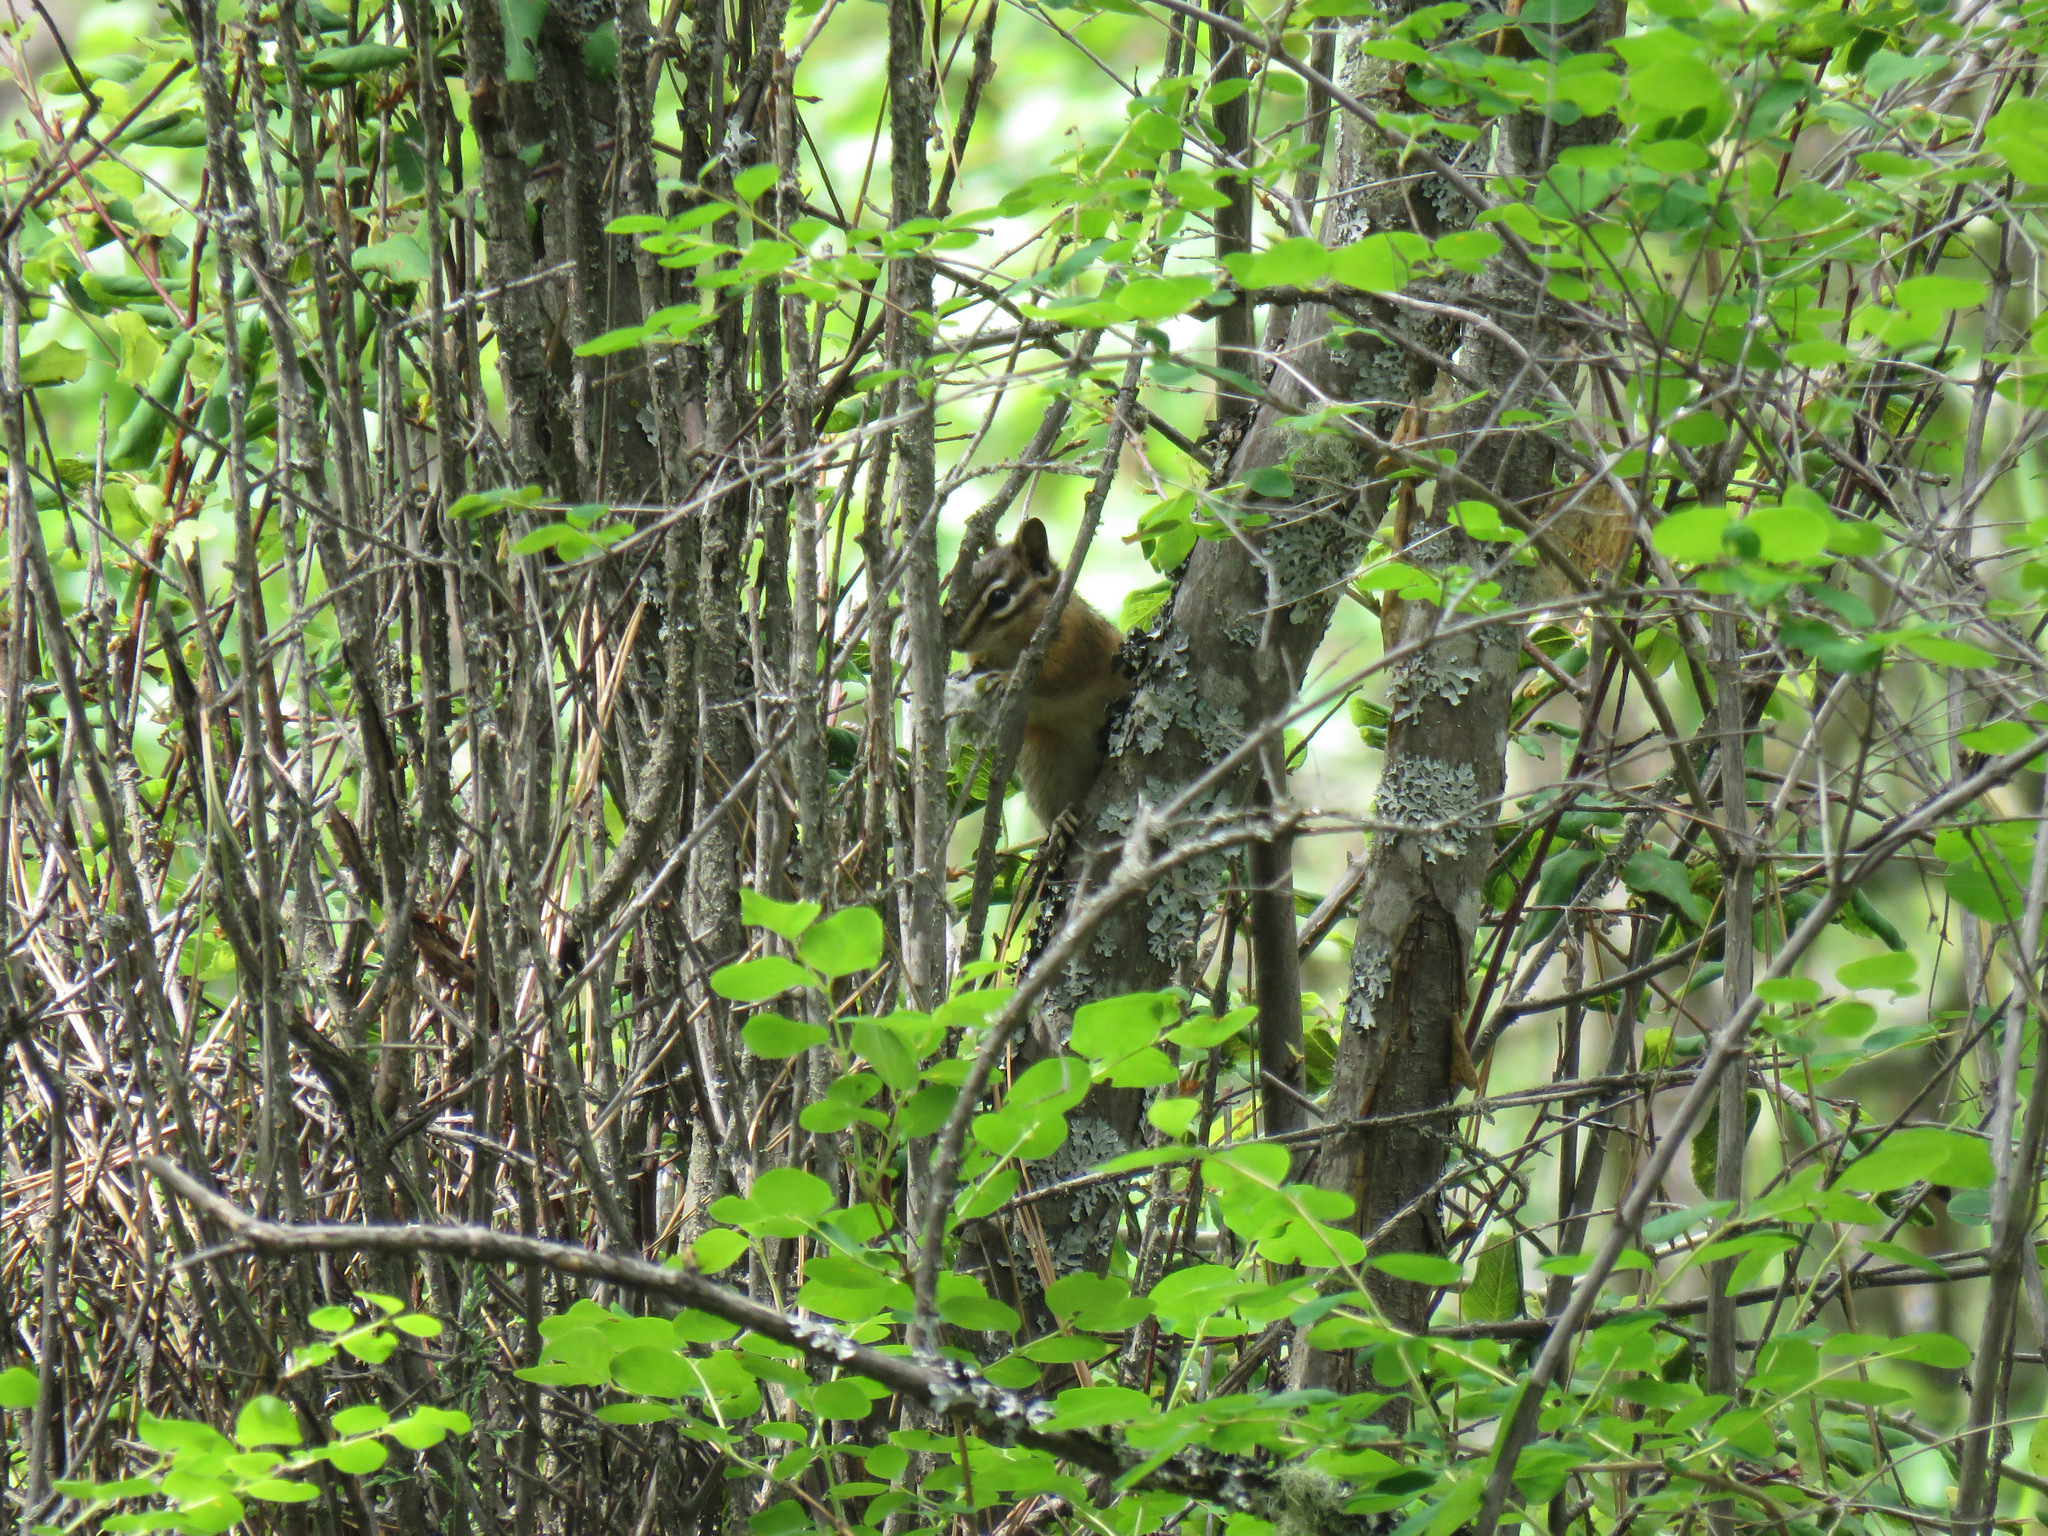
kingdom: Animalia
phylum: Chordata
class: Mammalia
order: Rodentia
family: Sciuridae
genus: Tamias
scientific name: Tamias amoenus
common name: Yellow-pine chipmunk
